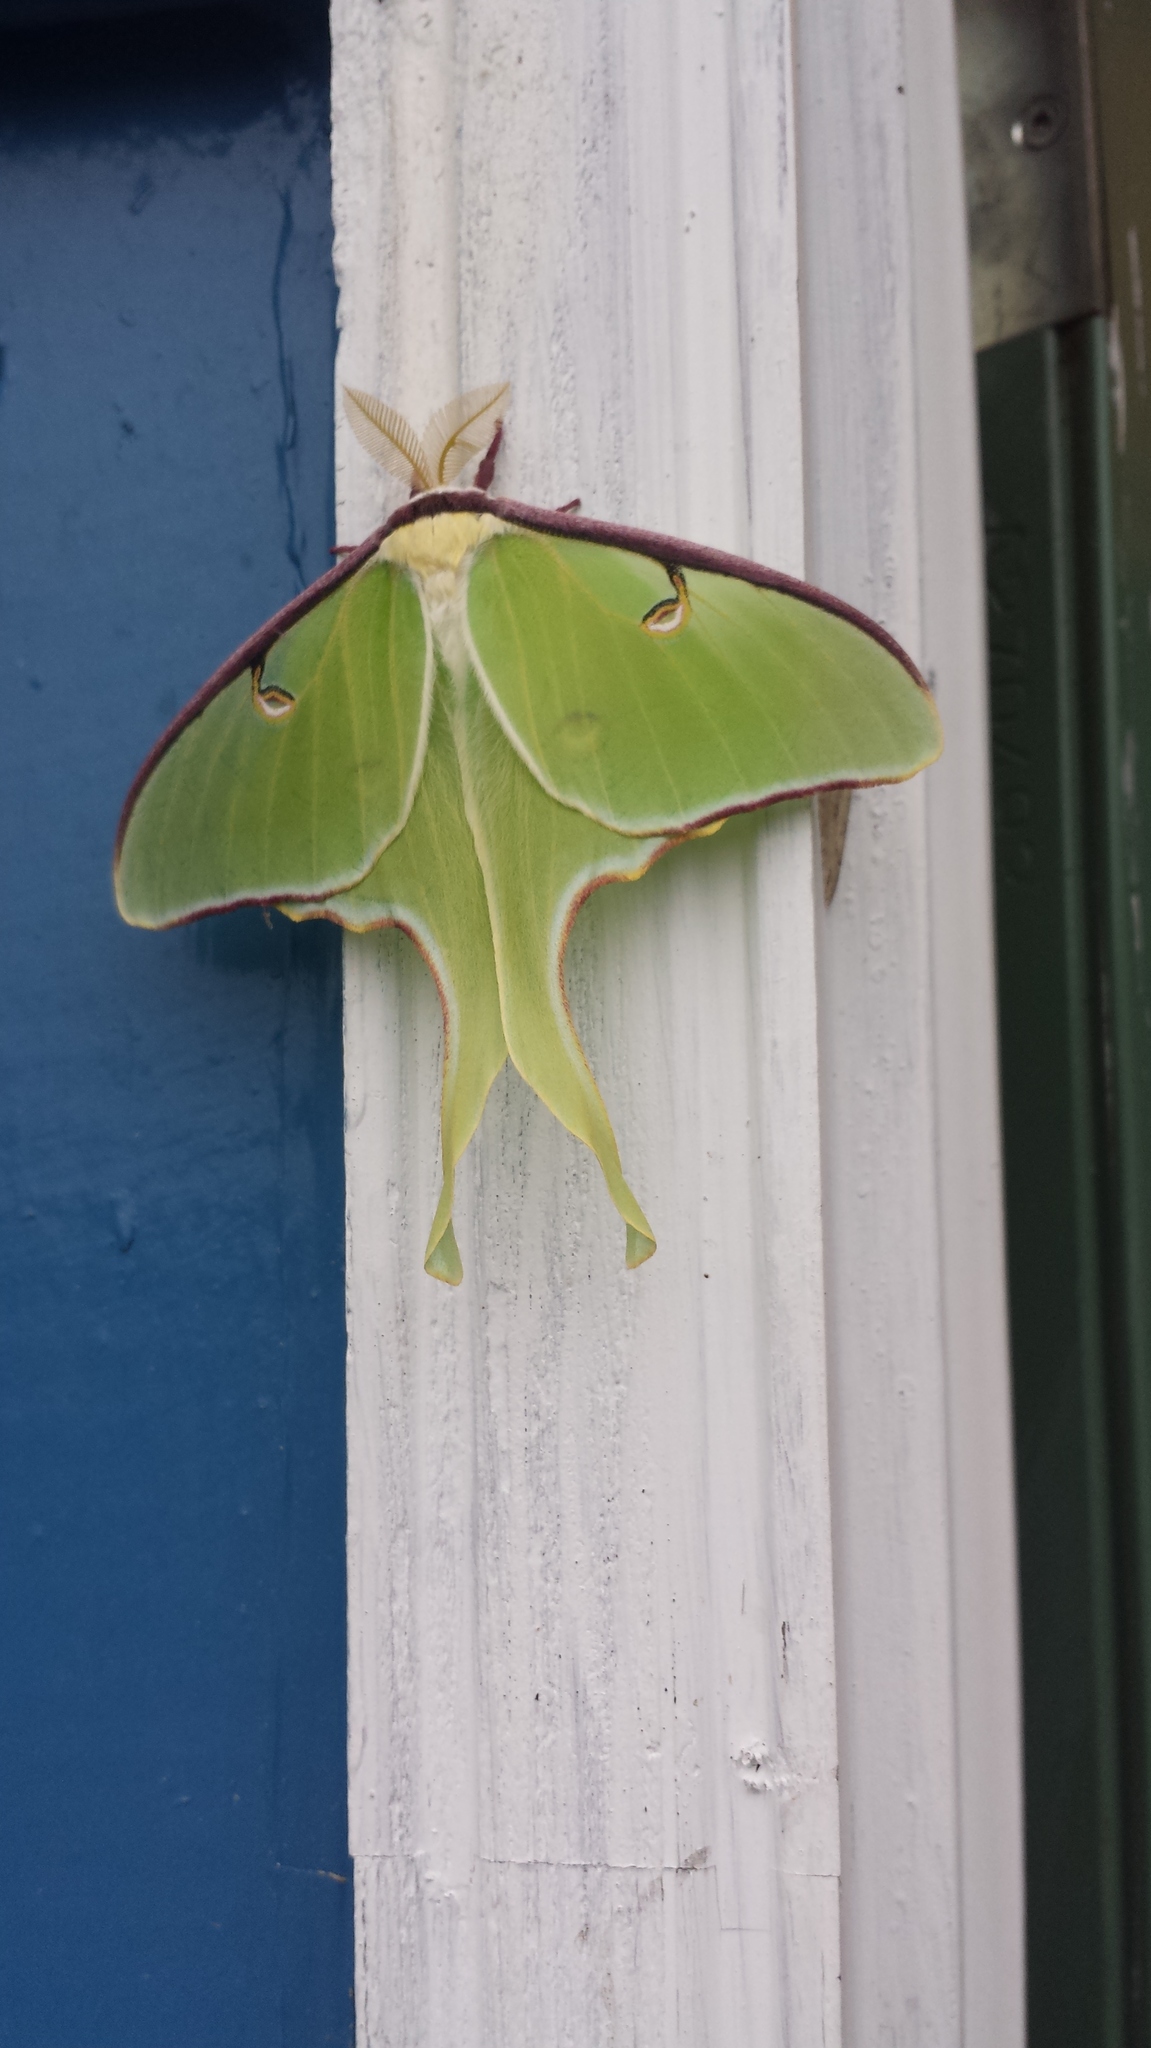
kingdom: Animalia
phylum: Arthropoda
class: Insecta
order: Lepidoptera
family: Saturniidae
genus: Actias
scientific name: Actias luna
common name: Luna moth
